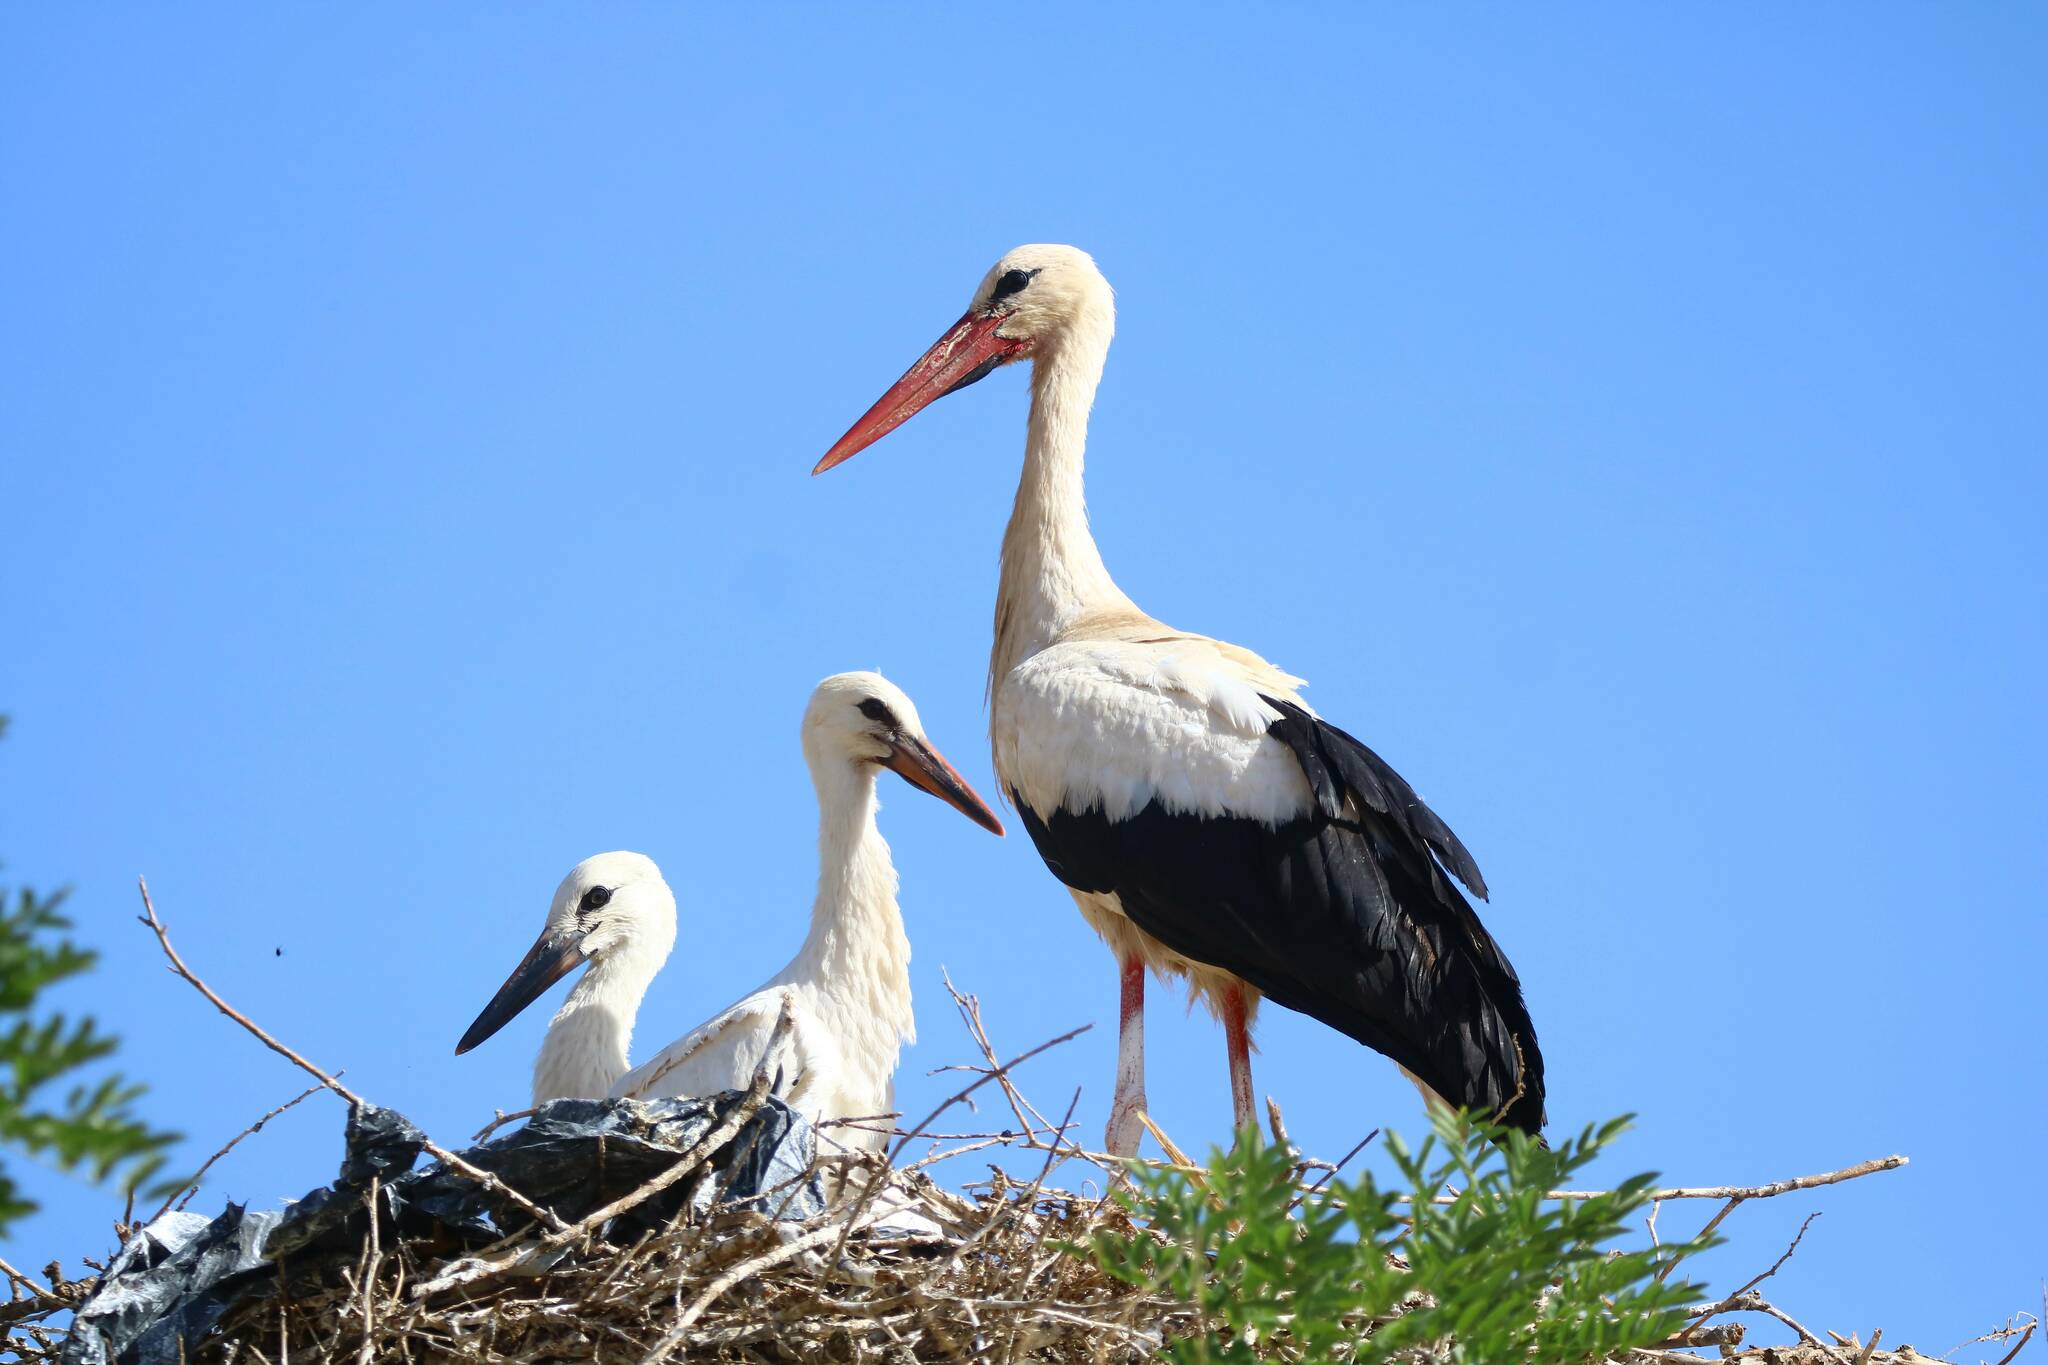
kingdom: Animalia
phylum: Chordata
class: Aves
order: Ciconiiformes
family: Ciconiidae
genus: Ciconia
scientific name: Ciconia ciconia
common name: White stork
